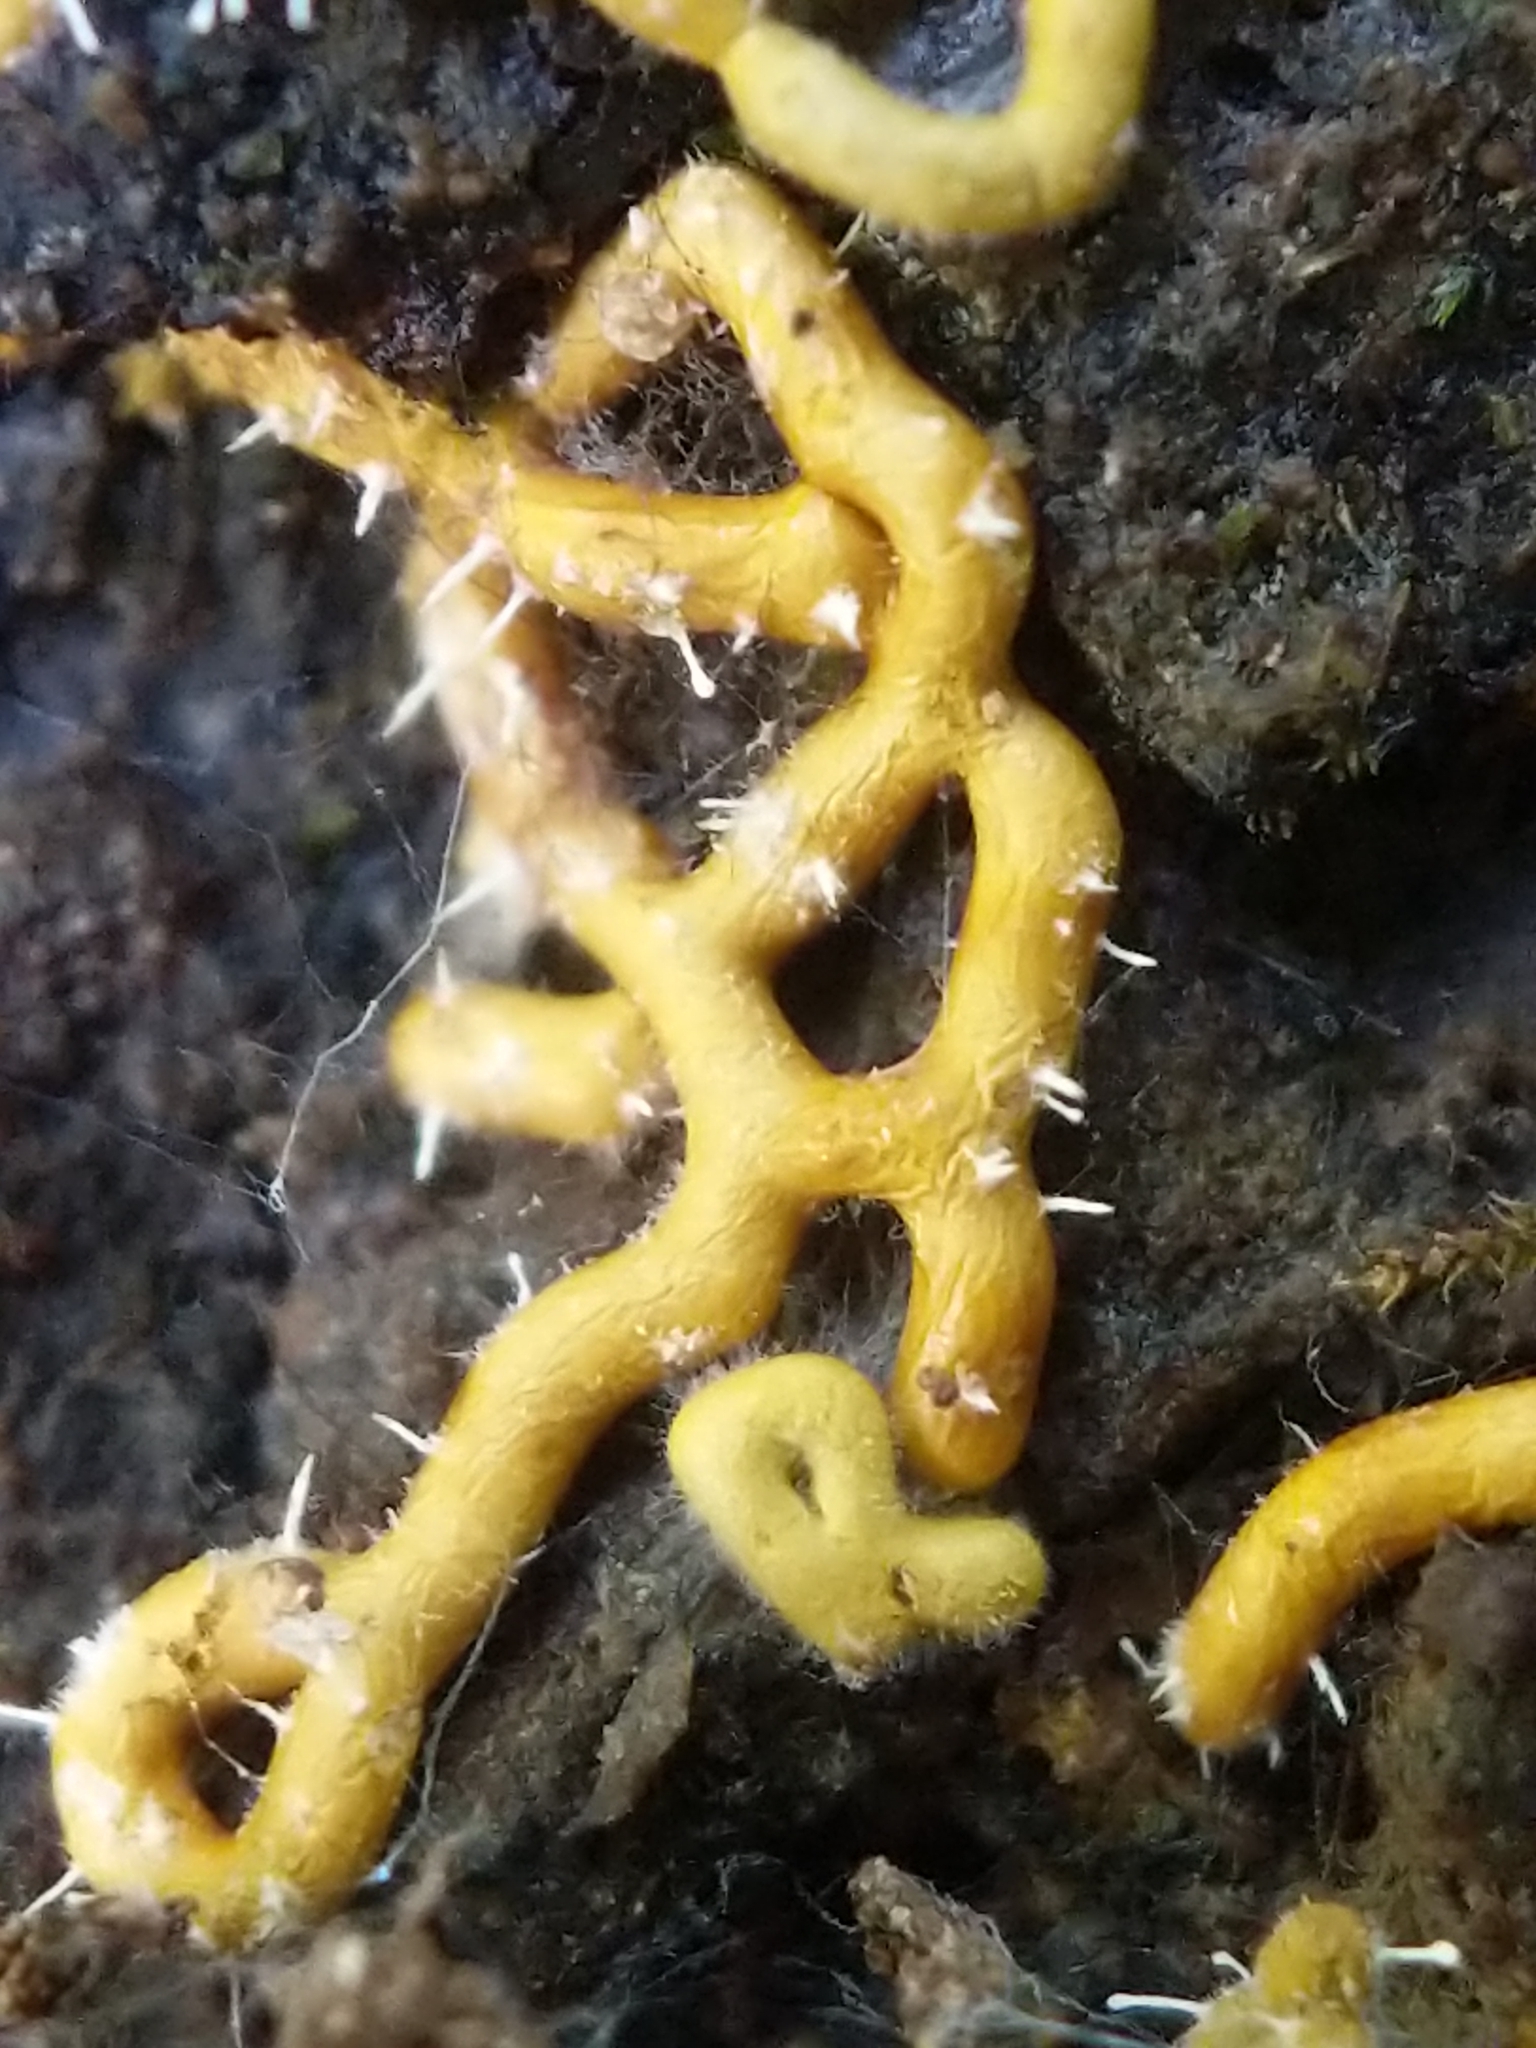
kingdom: Protozoa
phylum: Mycetozoa
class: Myxomycetes
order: Trichiales
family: Arcyriaceae
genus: Hemitrichia
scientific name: Hemitrichia serpula
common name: Pretzel slime mold
